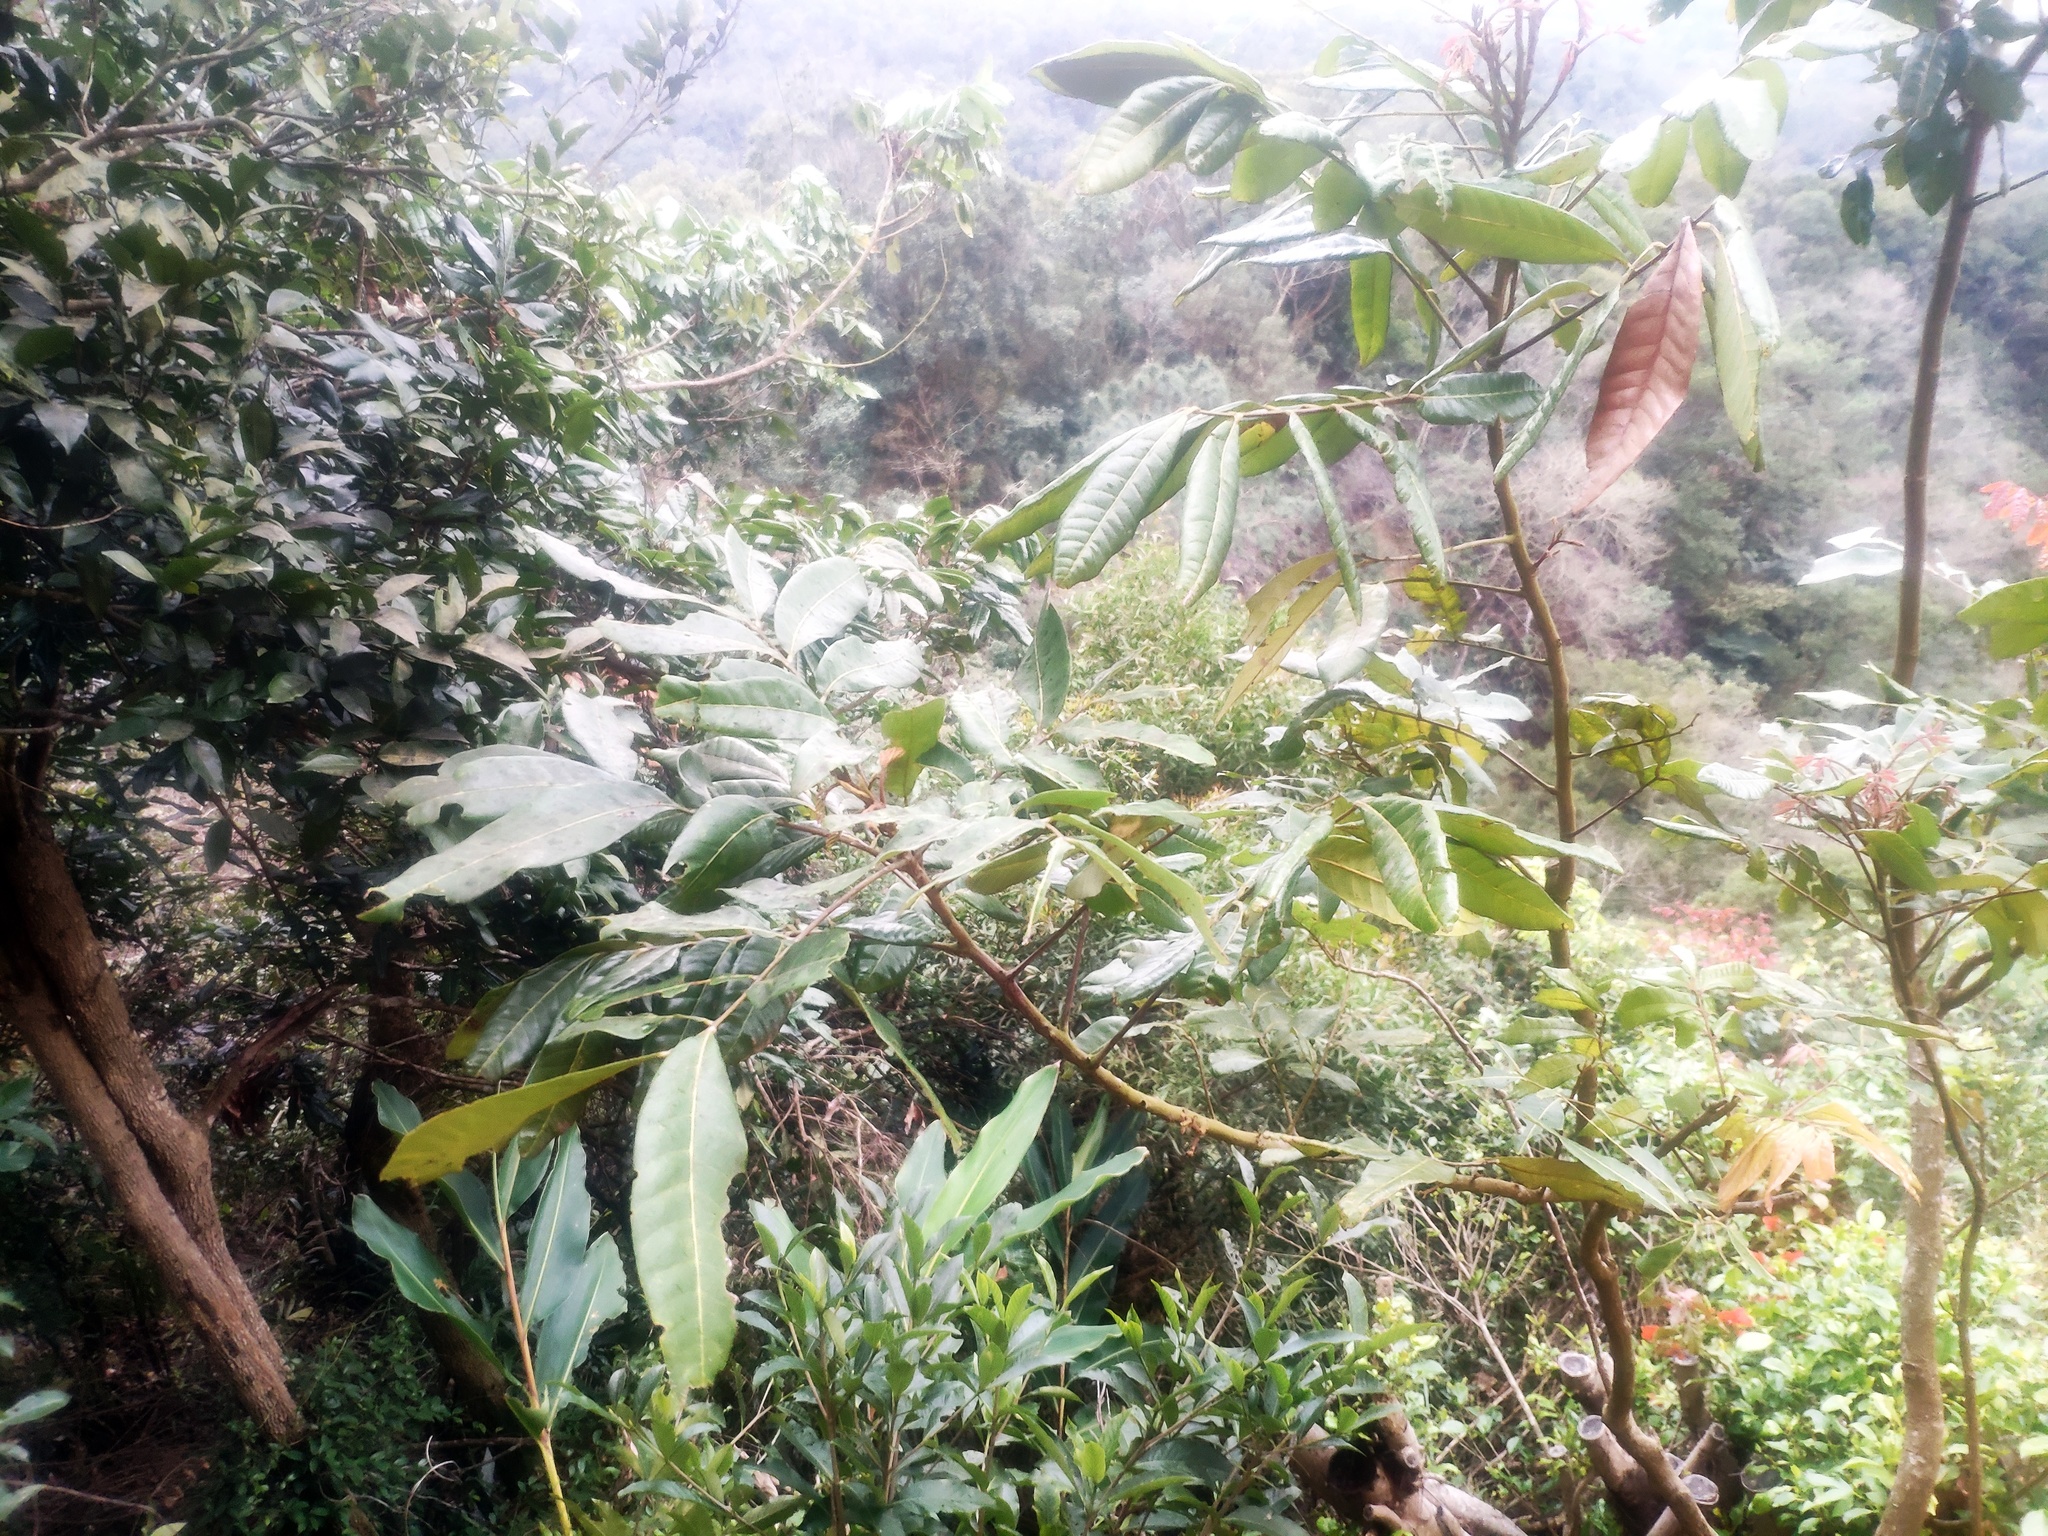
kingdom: Plantae
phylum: Tracheophyta
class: Magnoliopsida
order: Sapindales
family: Sapindaceae
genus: Dimocarpus
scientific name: Dimocarpus longan
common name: Longan
